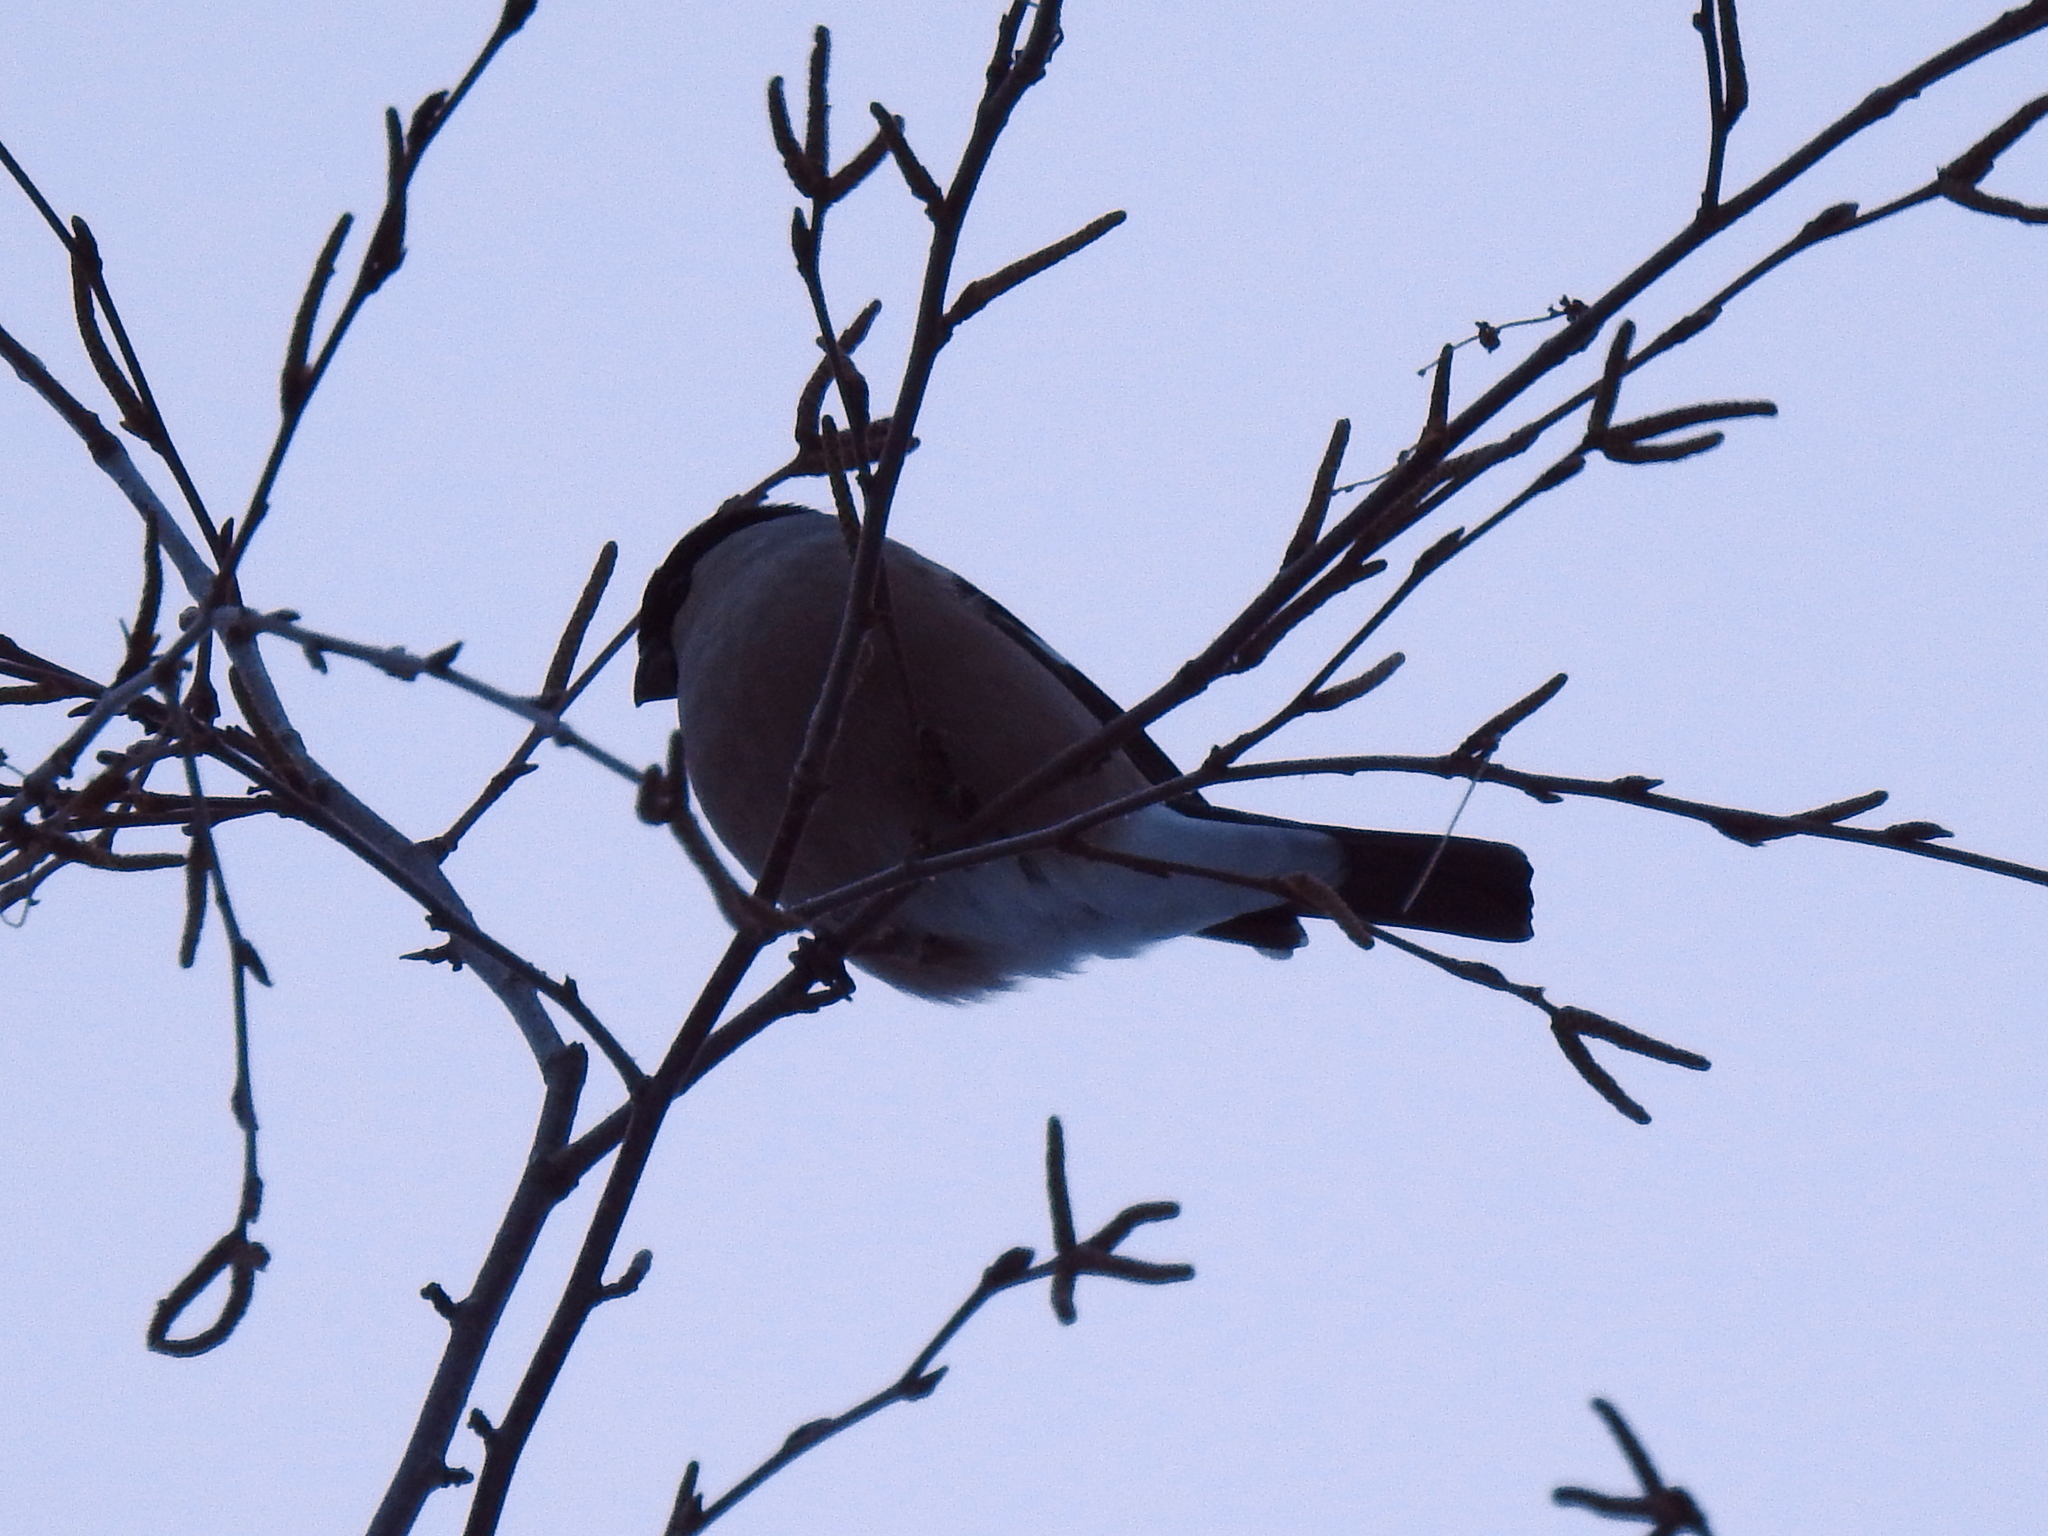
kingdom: Animalia
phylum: Chordata
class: Aves
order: Passeriformes
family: Fringillidae
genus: Pyrrhula
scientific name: Pyrrhula pyrrhula
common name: Eurasian bullfinch
